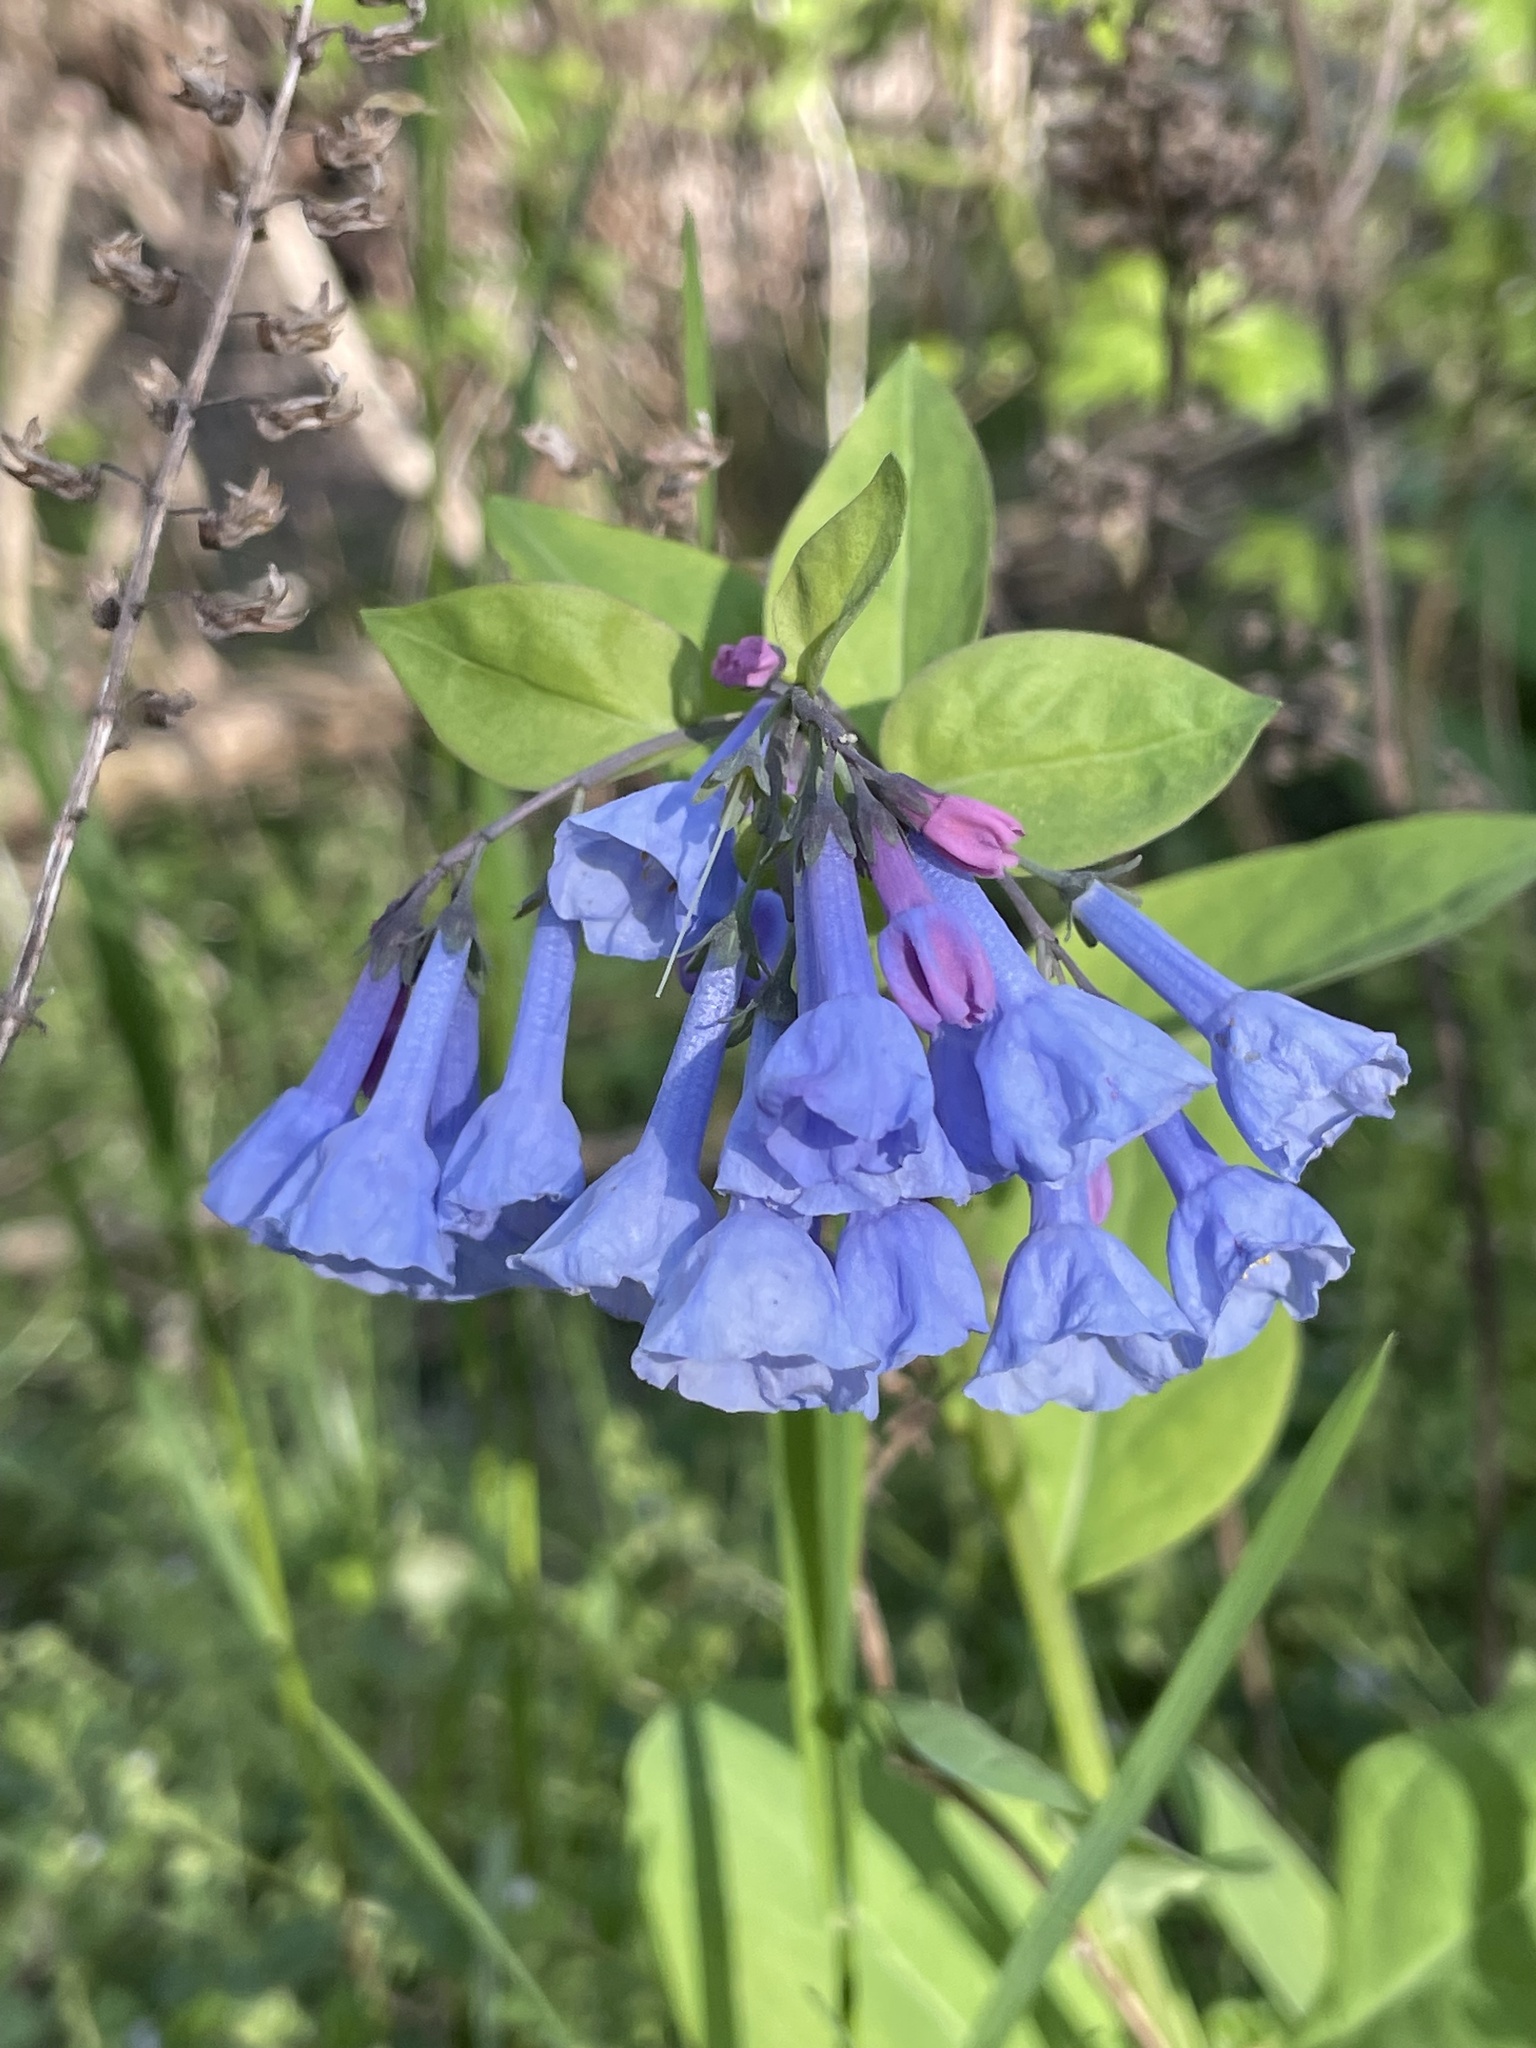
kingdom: Plantae
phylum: Tracheophyta
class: Magnoliopsida
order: Boraginales
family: Boraginaceae
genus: Mertensia
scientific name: Mertensia virginica
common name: Virginia bluebells
